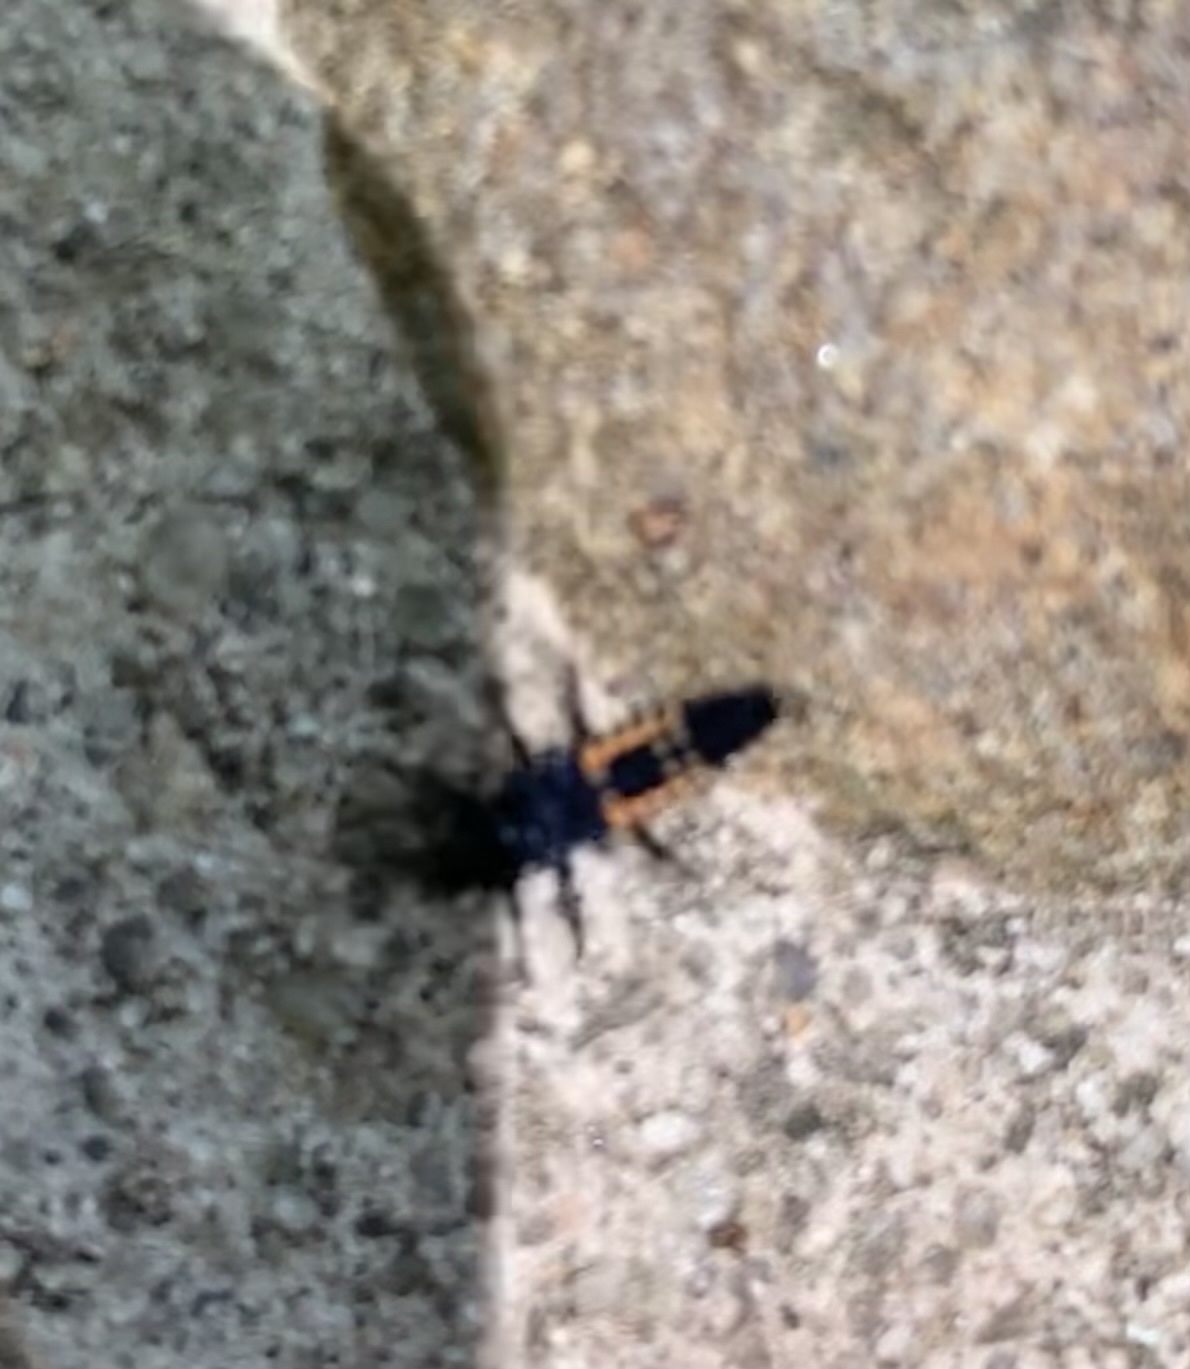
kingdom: Animalia
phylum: Arthropoda
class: Insecta
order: Coleoptera
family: Coccinellidae
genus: Harmonia
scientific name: Harmonia axyridis
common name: Harlequin ladybird
